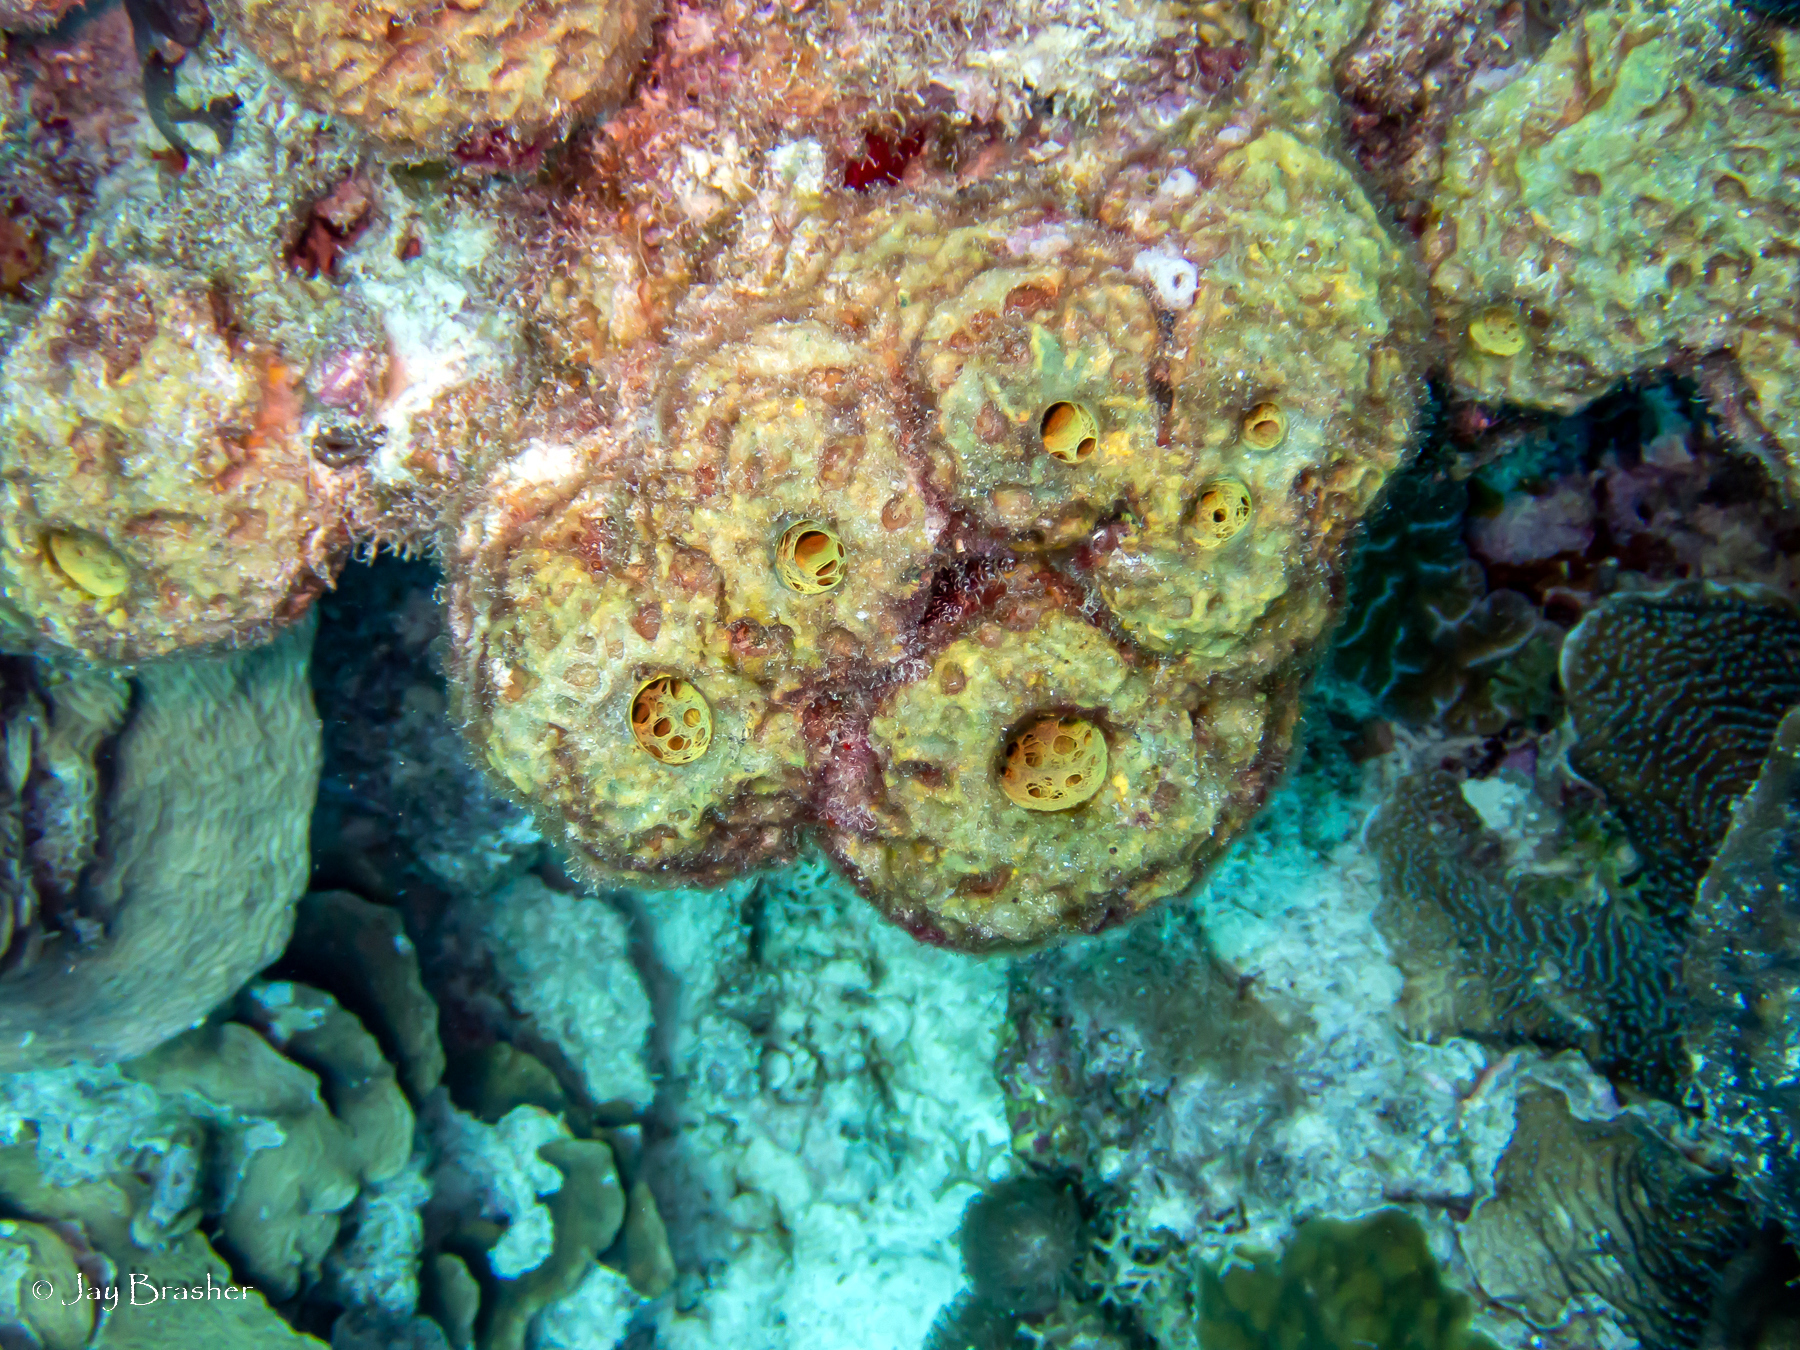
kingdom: Animalia
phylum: Porifera
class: Demospongiae
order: Verongiida
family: Aplysinidae
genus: Verongula
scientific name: Verongula rigida
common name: Pitted sponge
